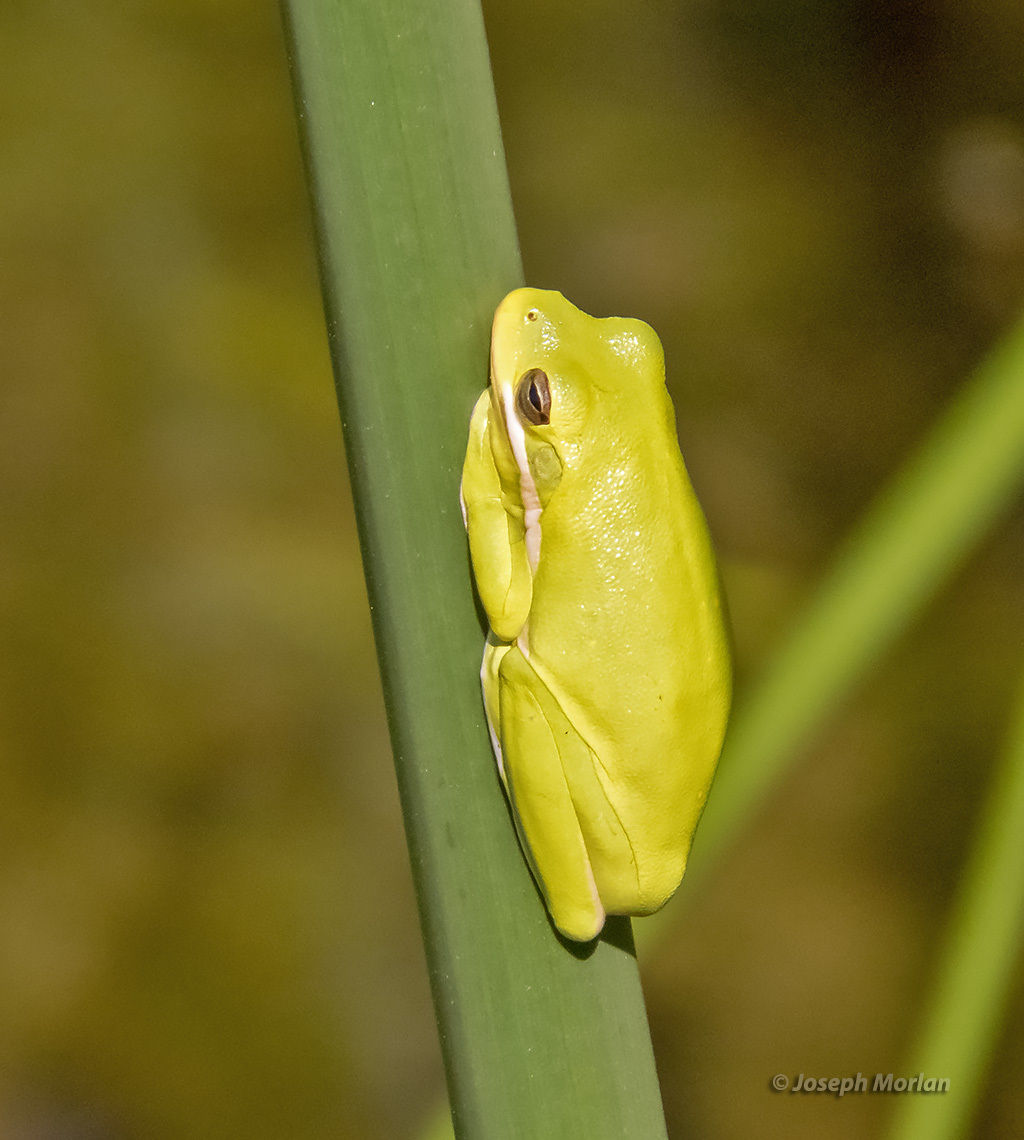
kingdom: Animalia
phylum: Chordata
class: Amphibia
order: Anura
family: Hylidae
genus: Dryophytes
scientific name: Dryophytes cinereus
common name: Green treefrog
